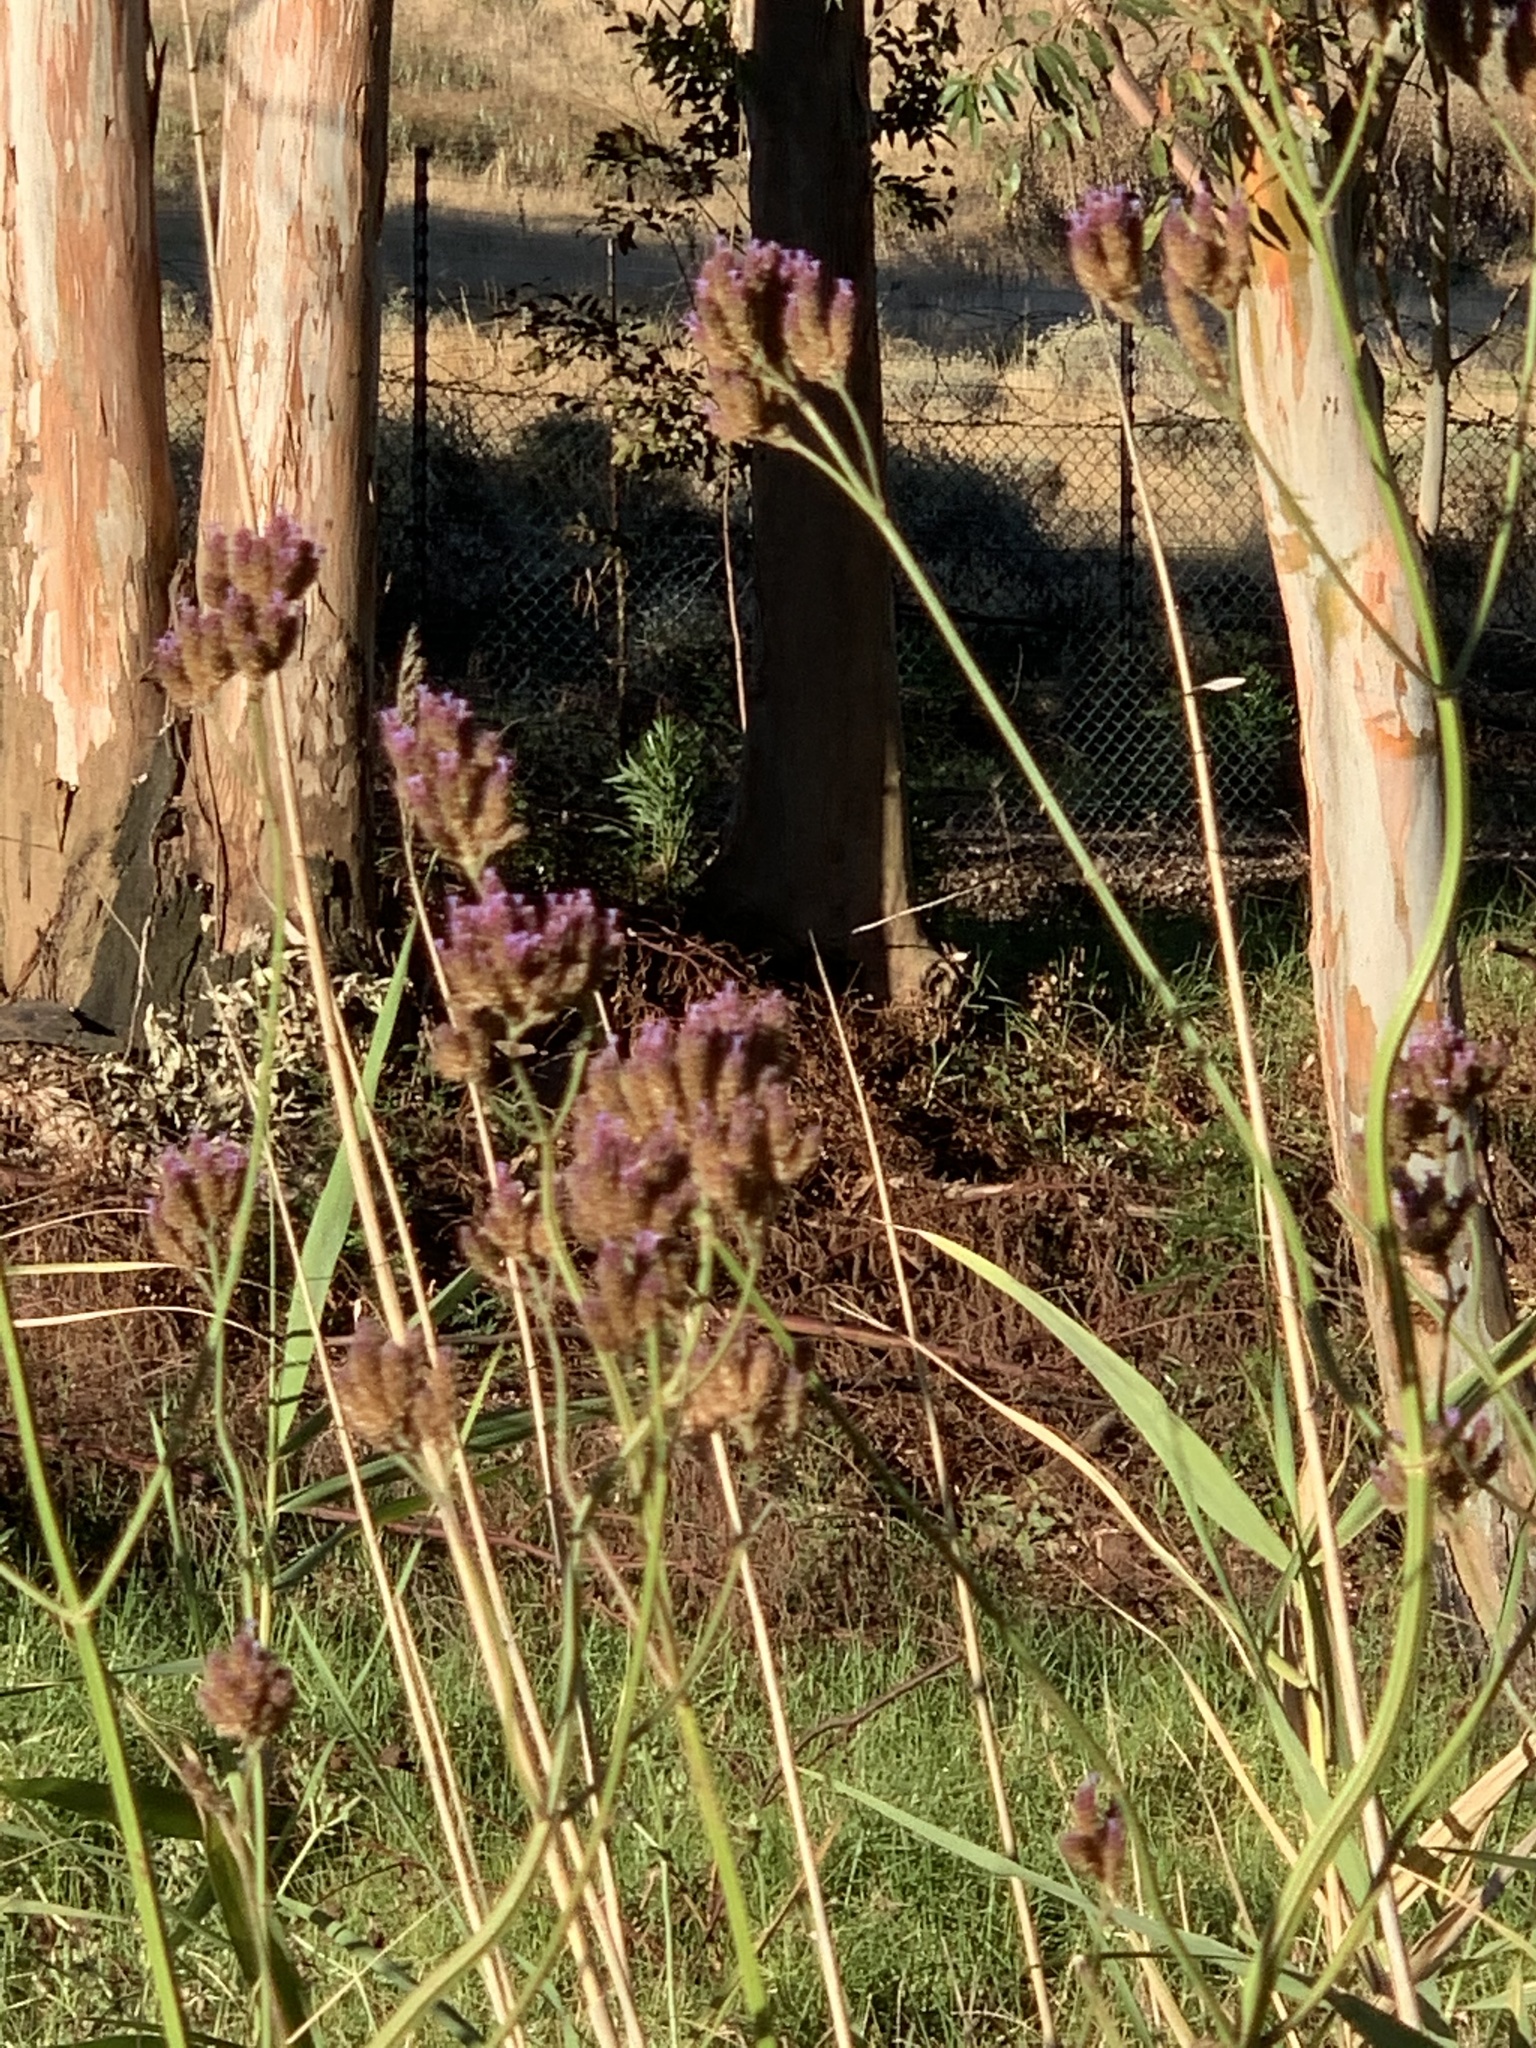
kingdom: Plantae
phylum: Tracheophyta
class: Magnoliopsida
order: Lamiales
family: Verbenaceae
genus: Verbena
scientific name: Verbena bonariensis
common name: Purpletop vervain
